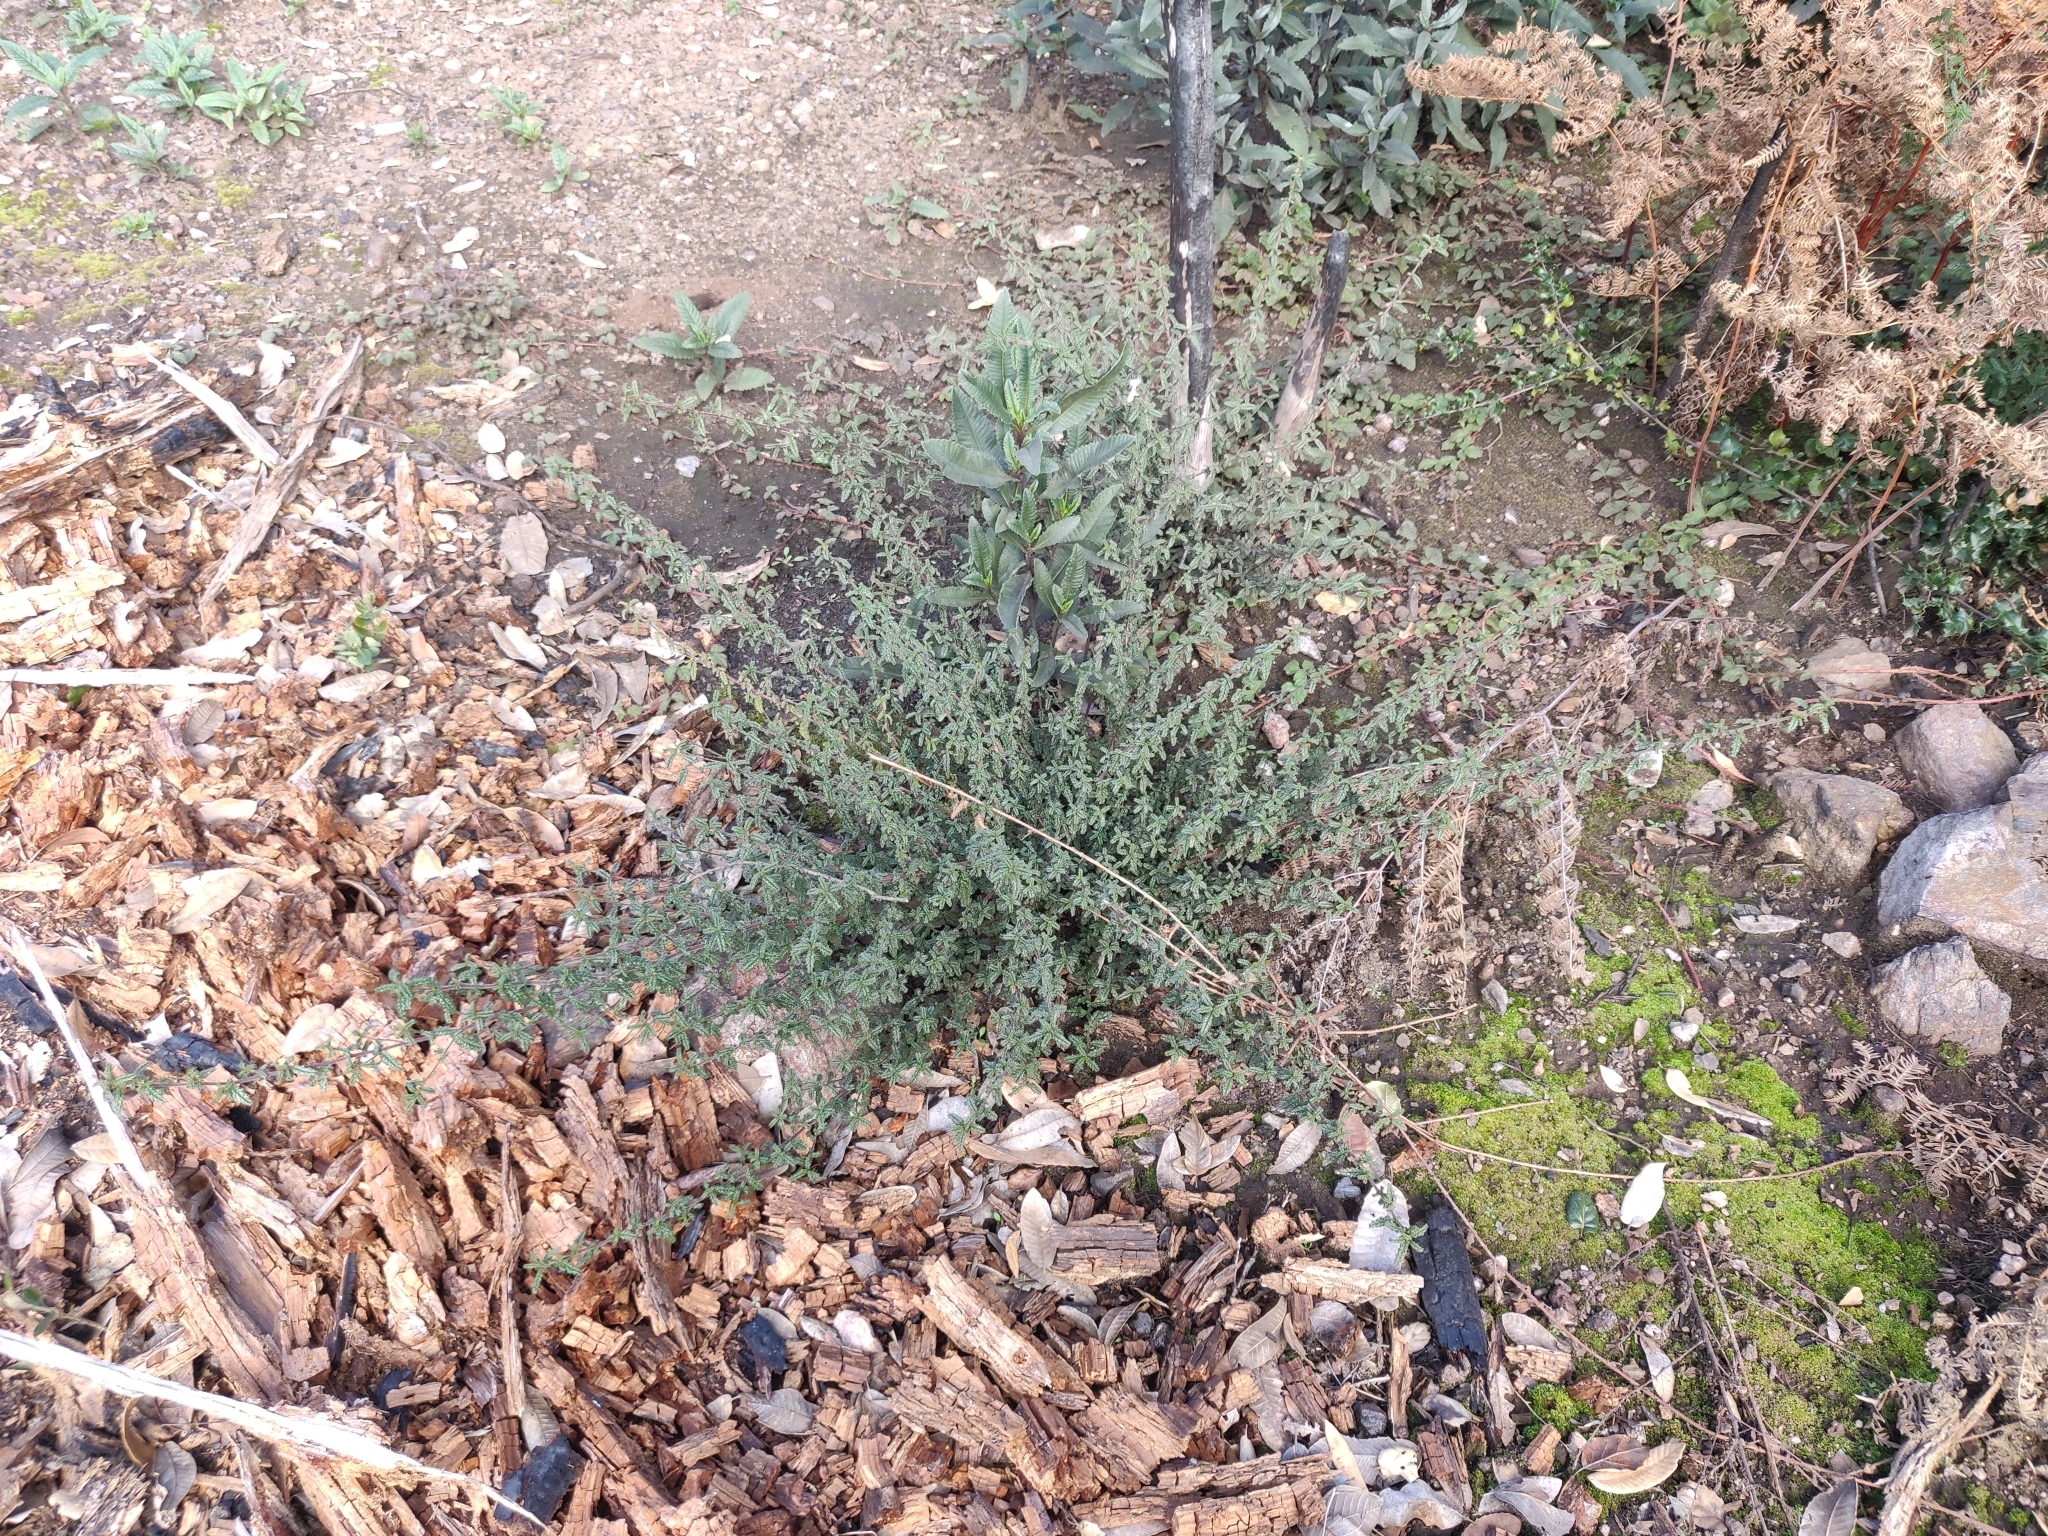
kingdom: Plantae
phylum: Tracheophyta
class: Magnoliopsida
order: Rosales
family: Rhamnaceae
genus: Ceanothus
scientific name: Ceanothus papillosus
